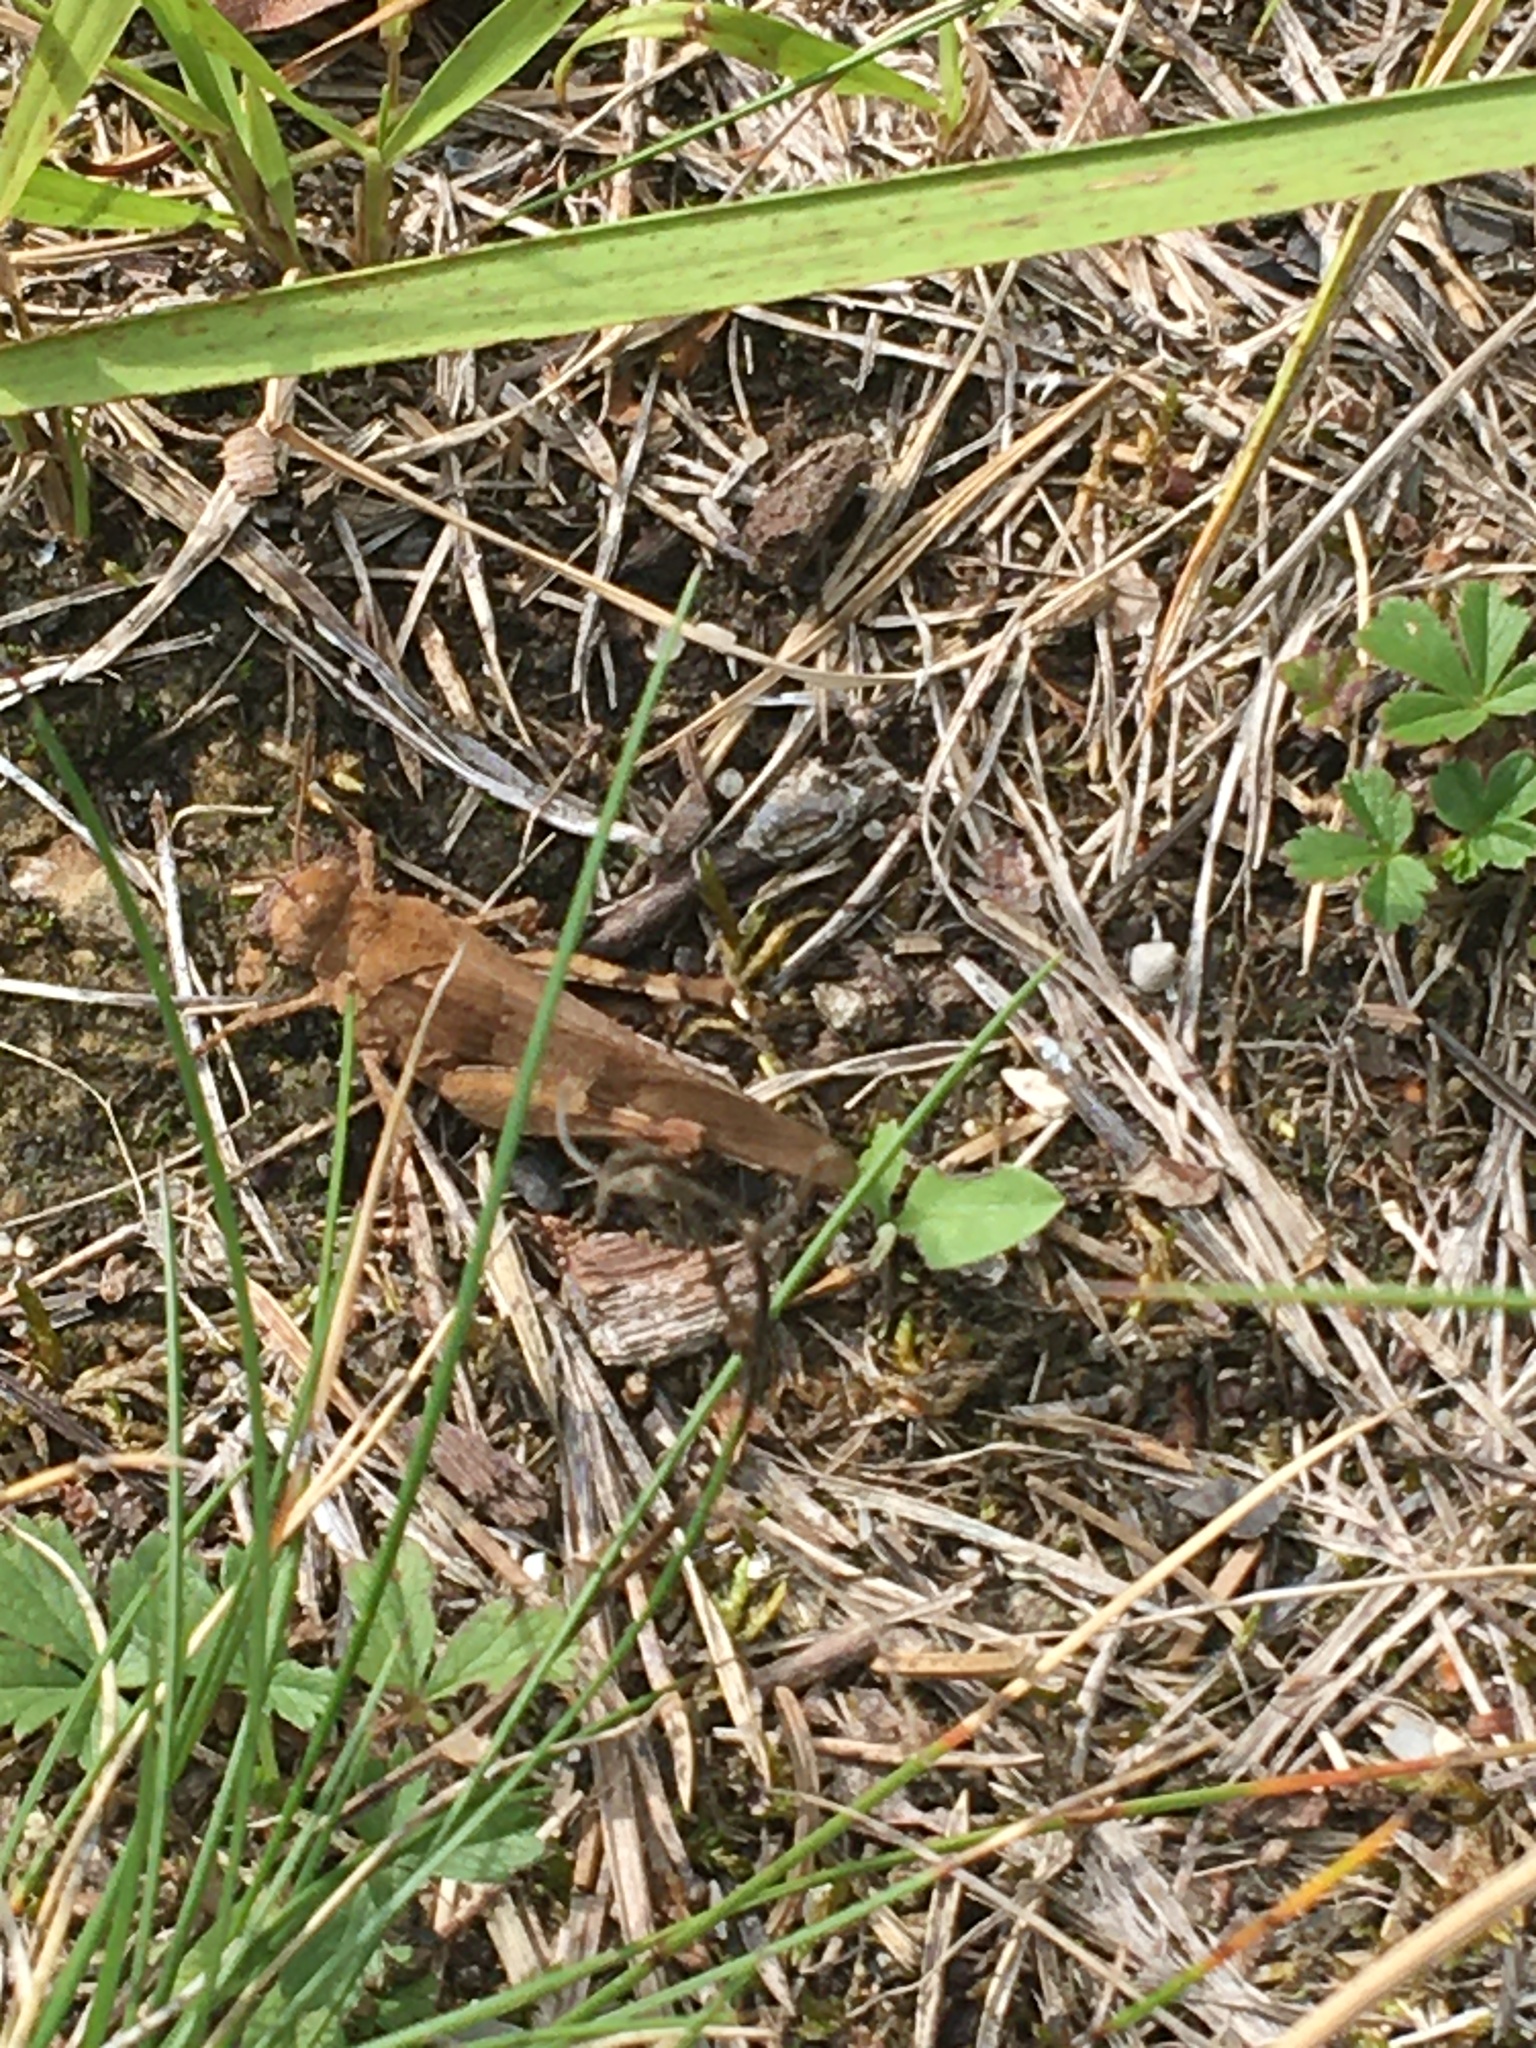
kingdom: Animalia
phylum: Arthropoda
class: Insecta
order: Orthoptera
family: Acrididae
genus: Oedipoda
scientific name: Oedipoda caerulescens
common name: Blue-winged grasshopper
